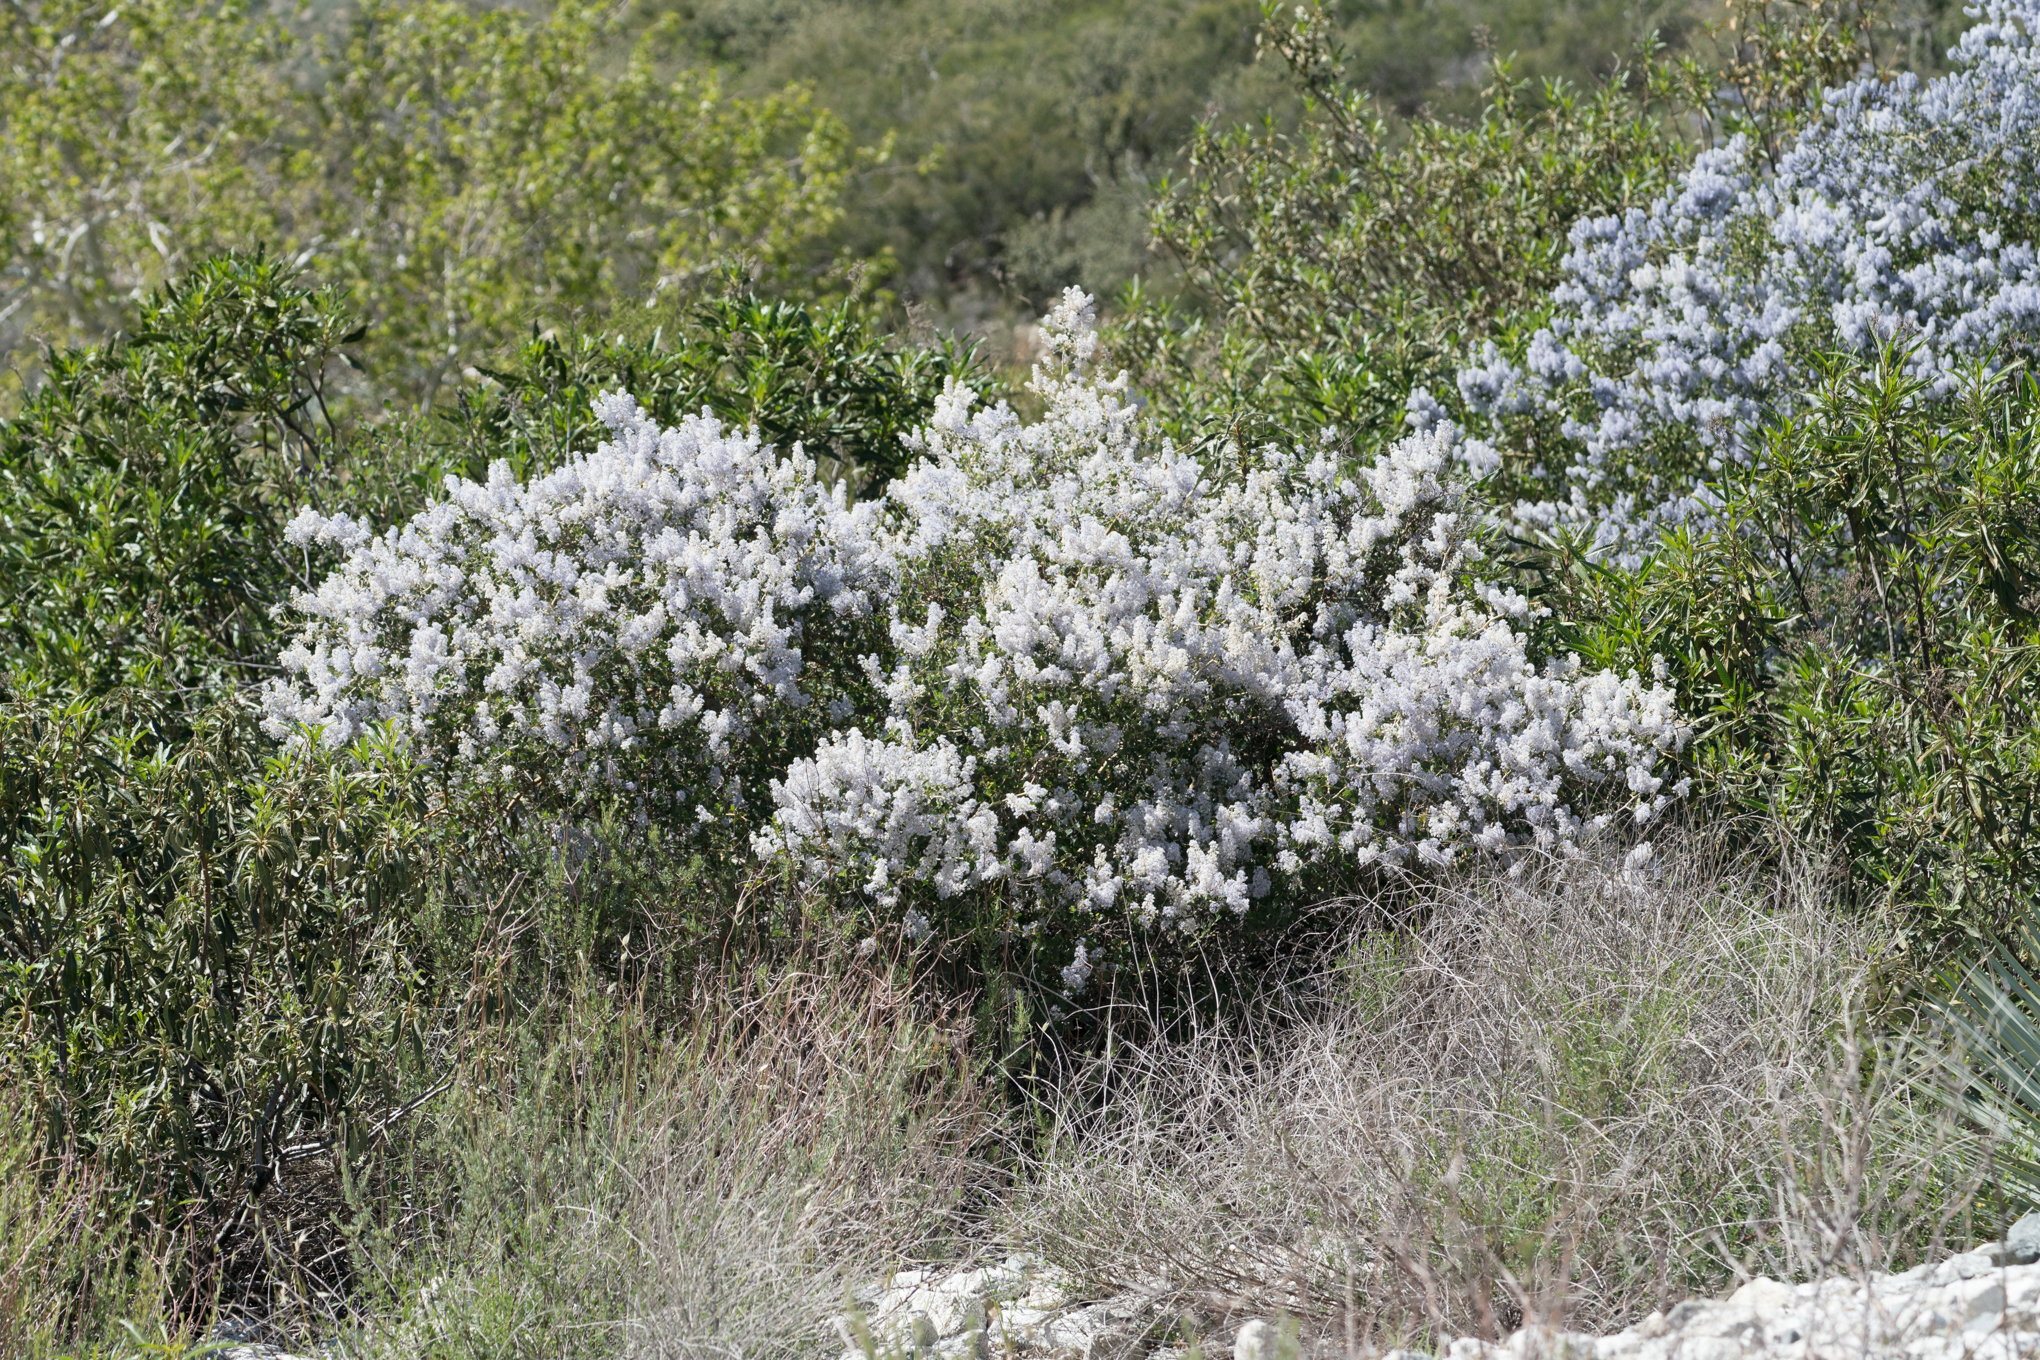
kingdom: Plantae
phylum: Tracheophyta
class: Magnoliopsida
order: Rosales
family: Rhamnaceae
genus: Ceanothus
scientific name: Ceanothus leucodermis
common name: Chaparral whitethorn
